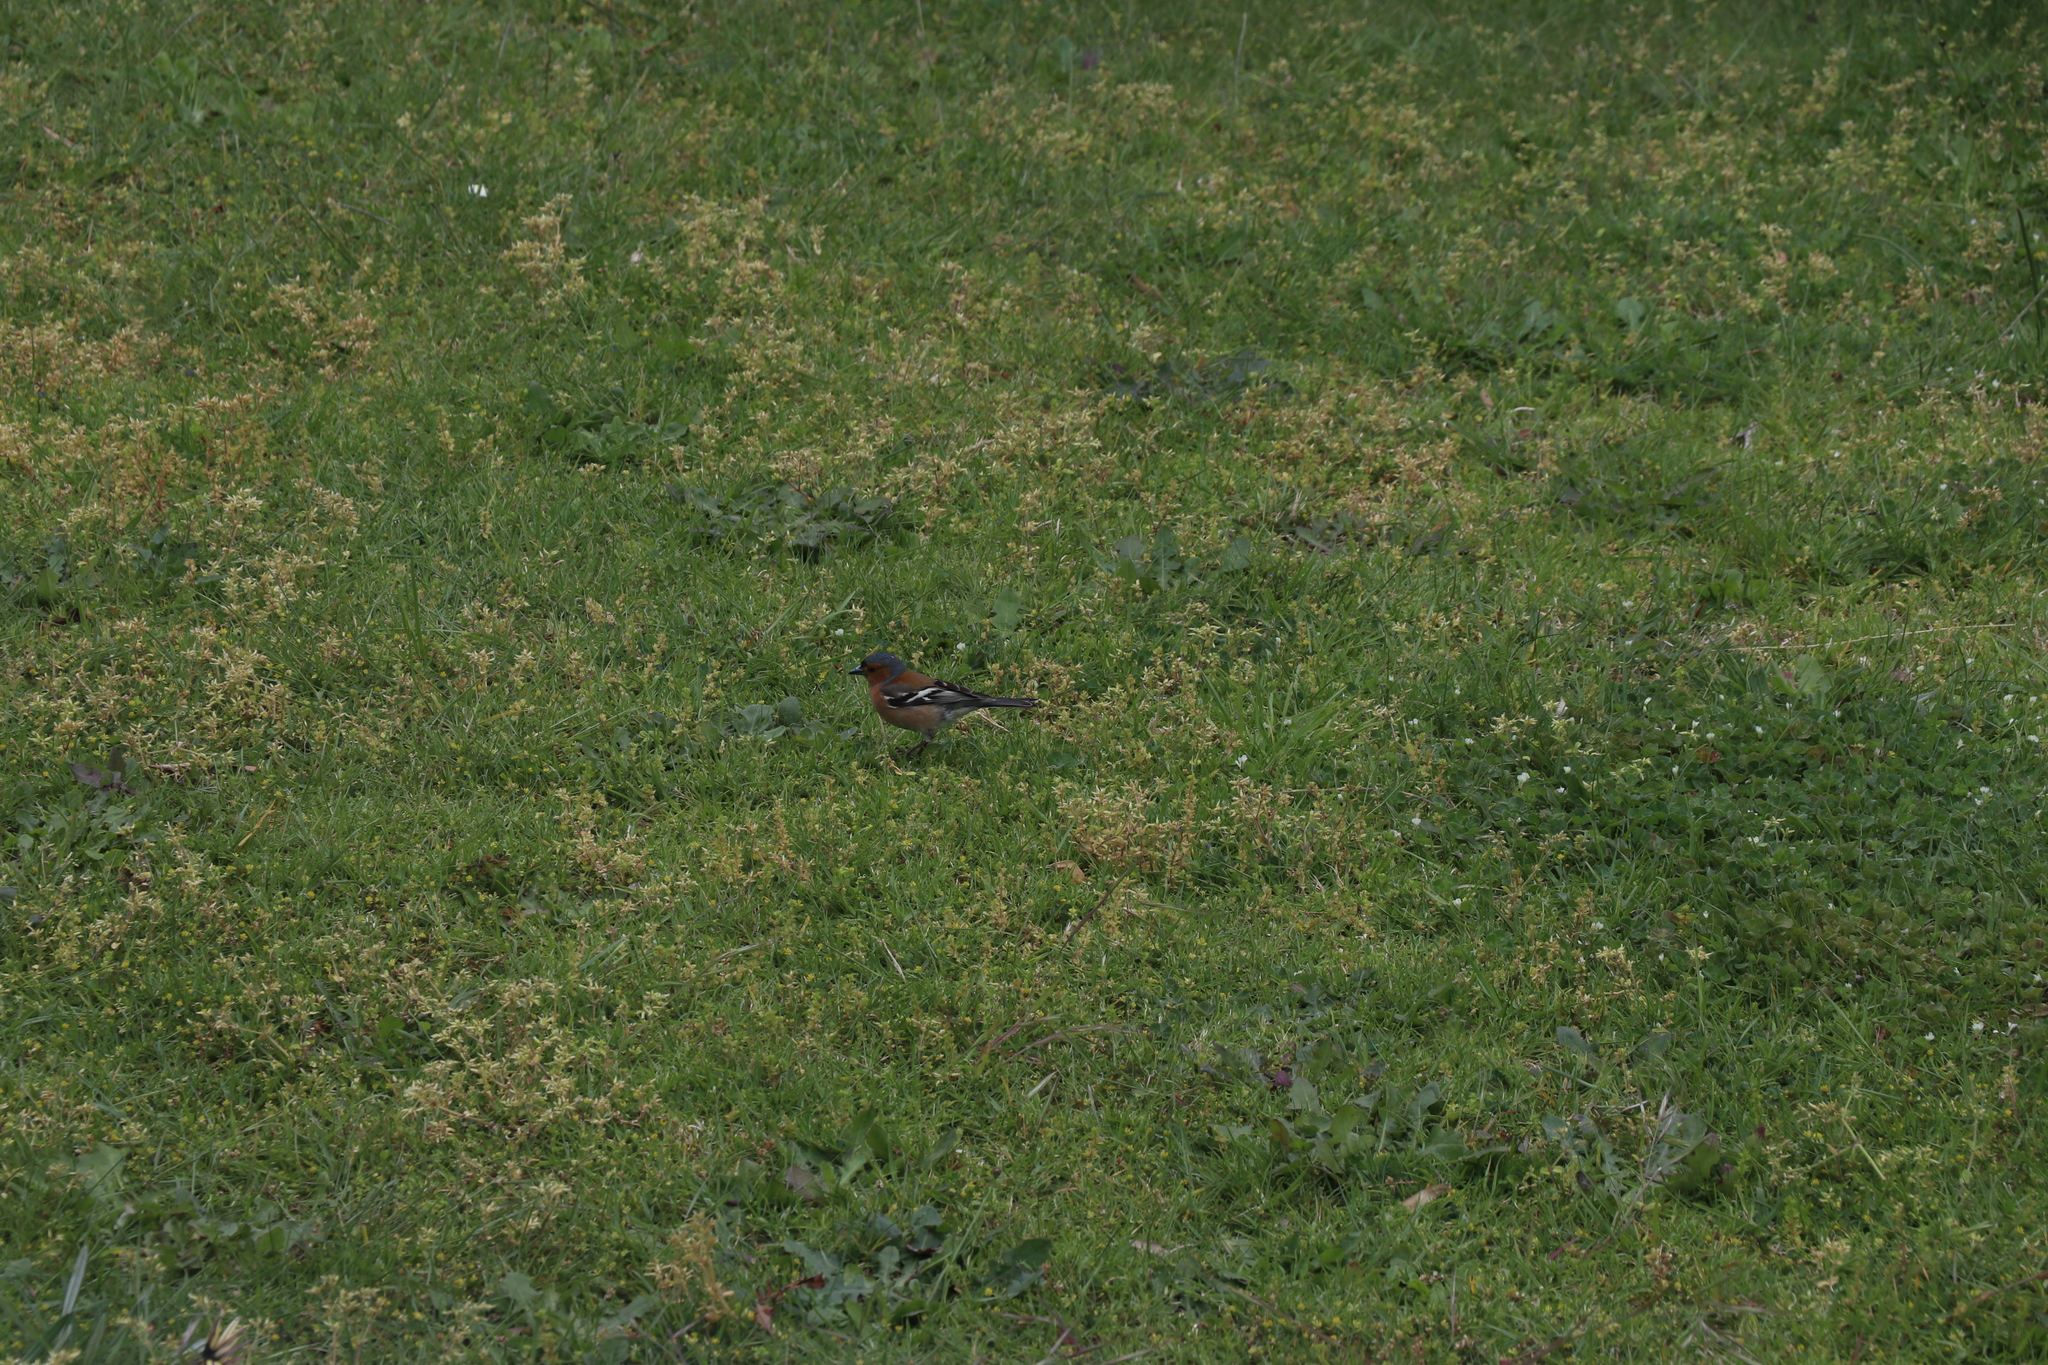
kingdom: Animalia
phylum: Chordata
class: Aves
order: Passeriformes
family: Fringillidae
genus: Fringilla
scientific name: Fringilla coelebs
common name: Common chaffinch
